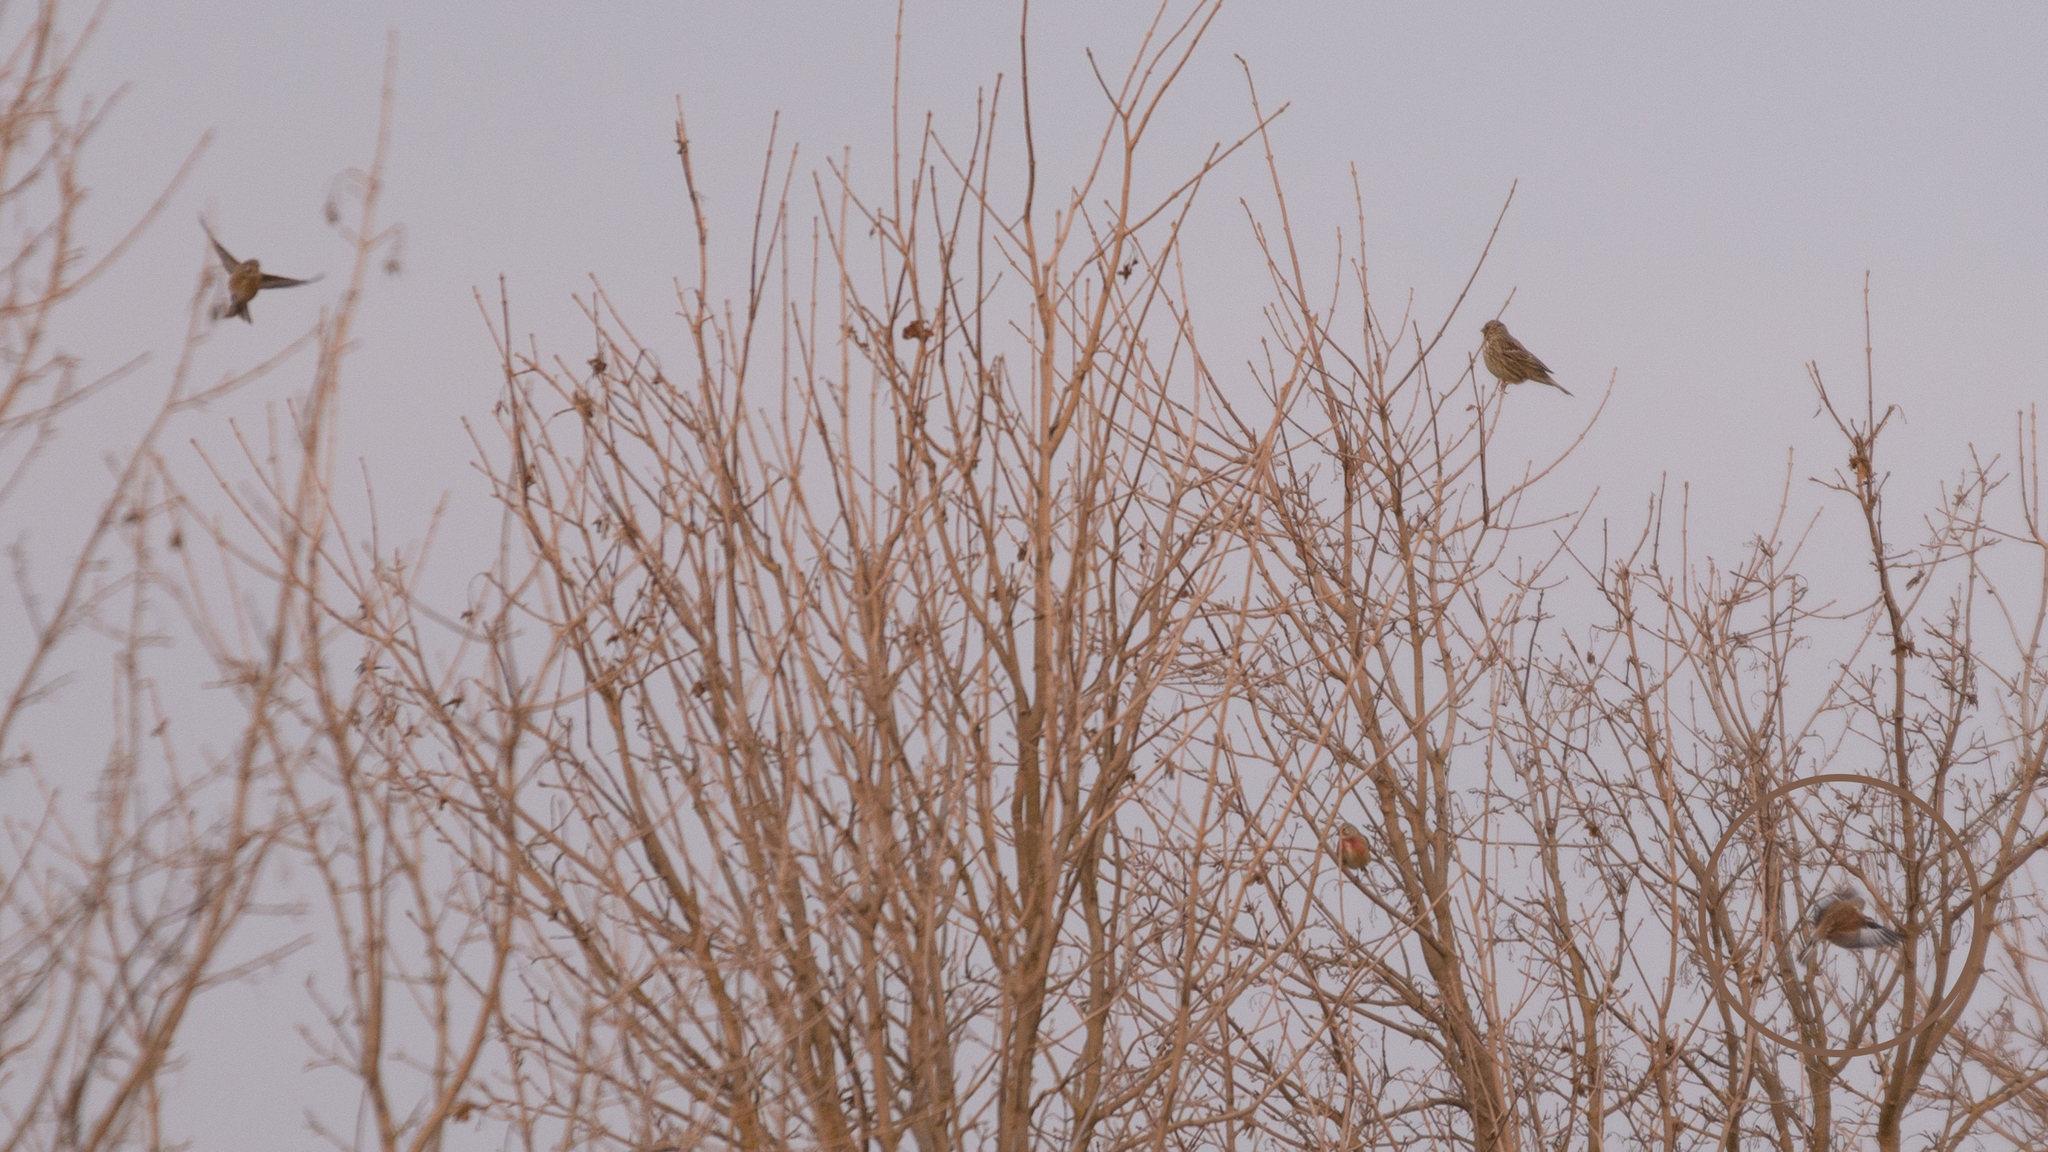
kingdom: Animalia
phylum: Chordata
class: Aves
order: Passeriformes
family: Fringillidae
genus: Linaria
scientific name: Linaria cannabina
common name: Common linnet
